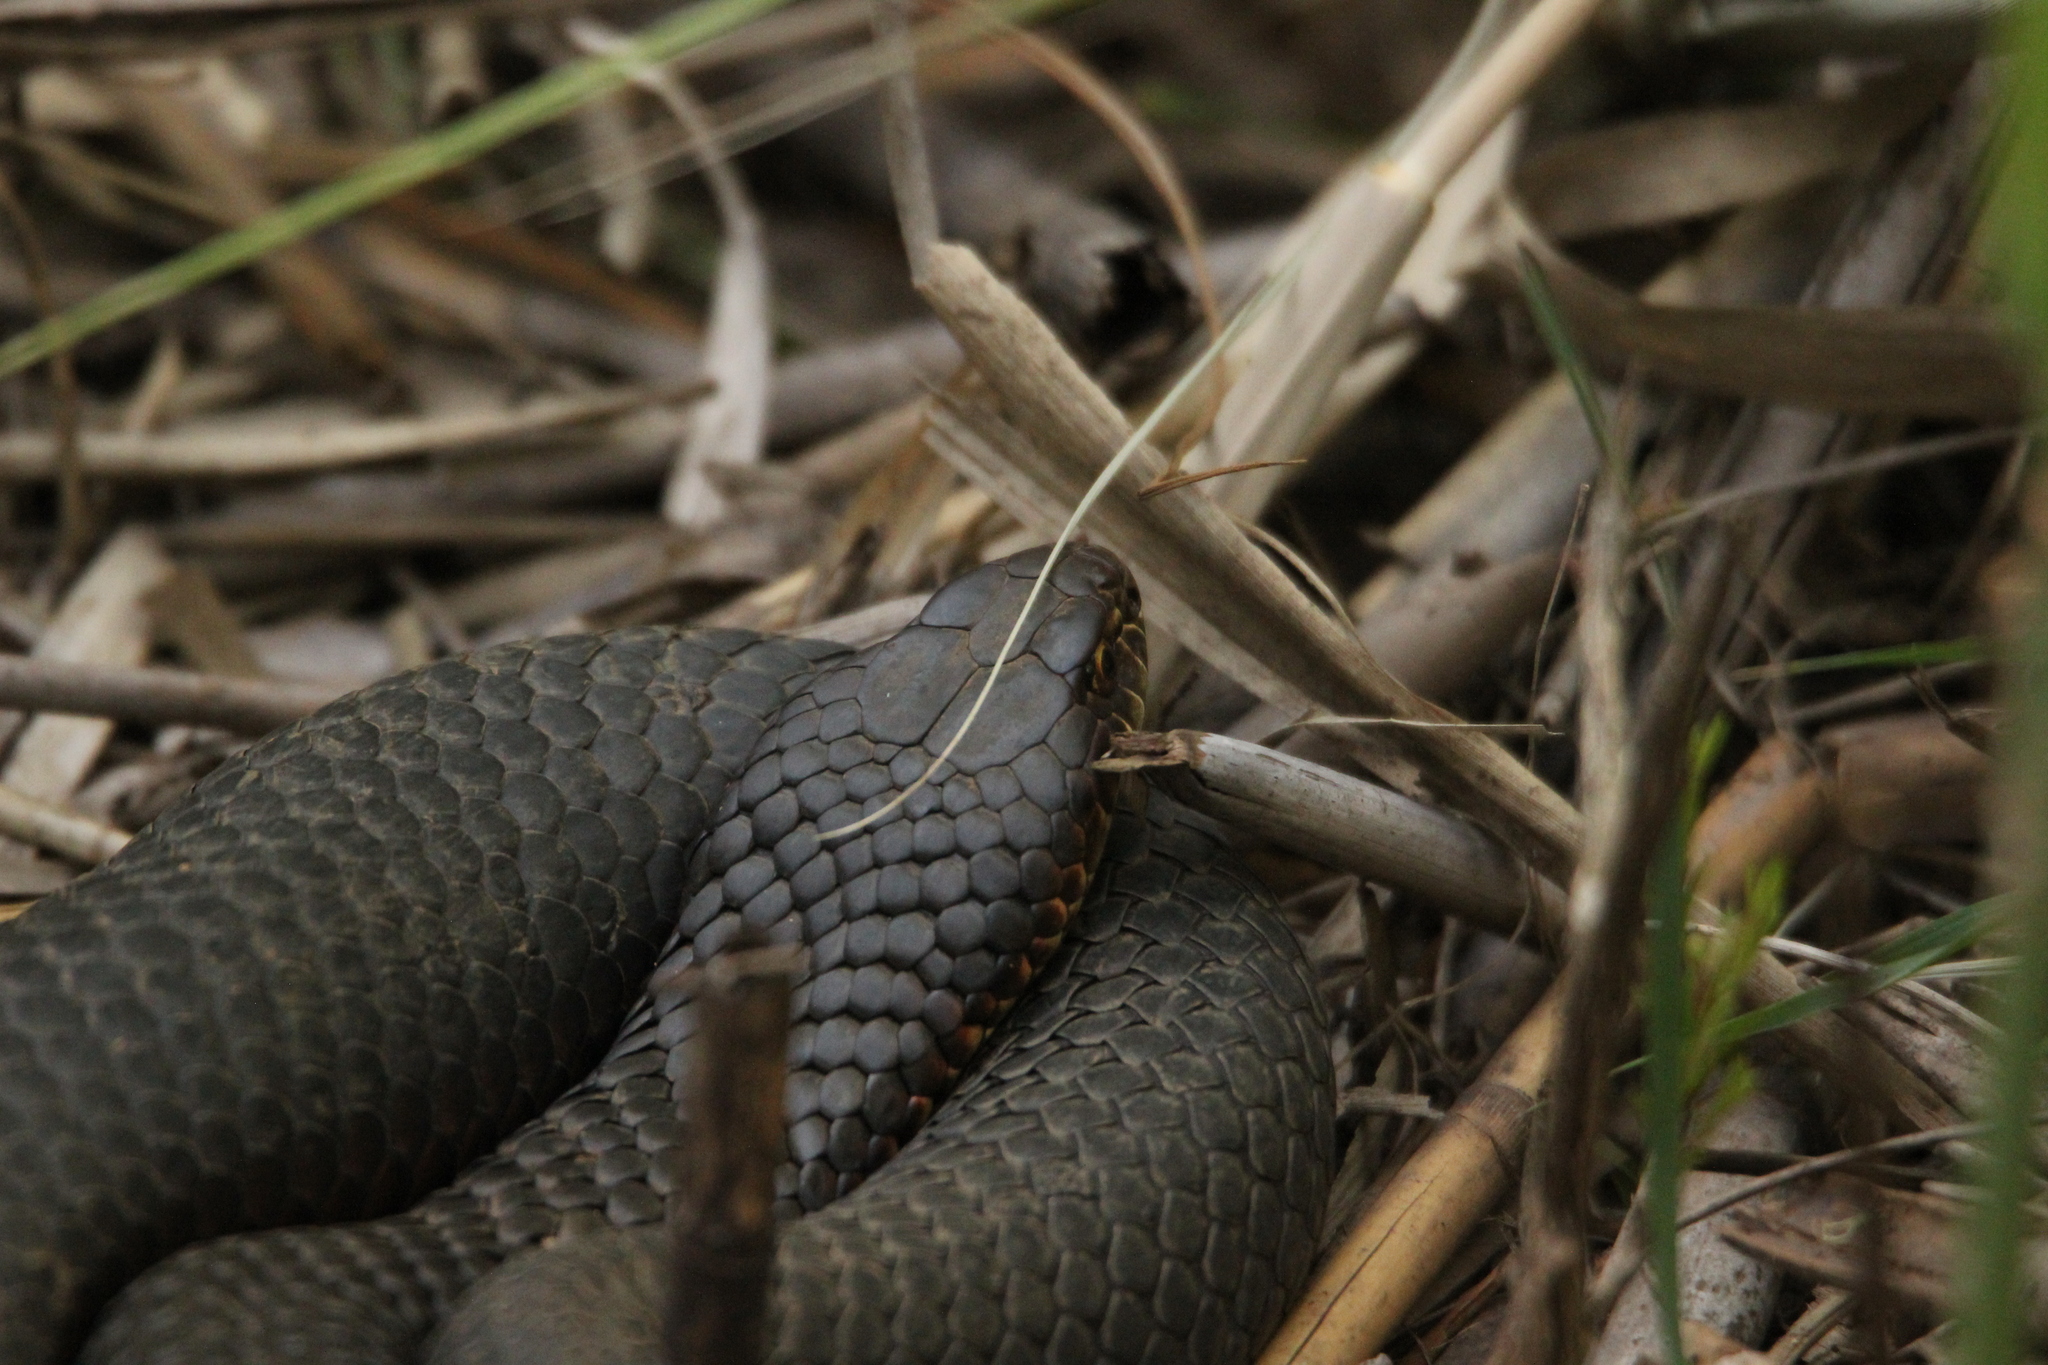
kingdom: Animalia
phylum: Chordata
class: Squamata
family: Elapidae
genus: Austrelaps
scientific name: Austrelaps superbus
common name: Copperhead snake
